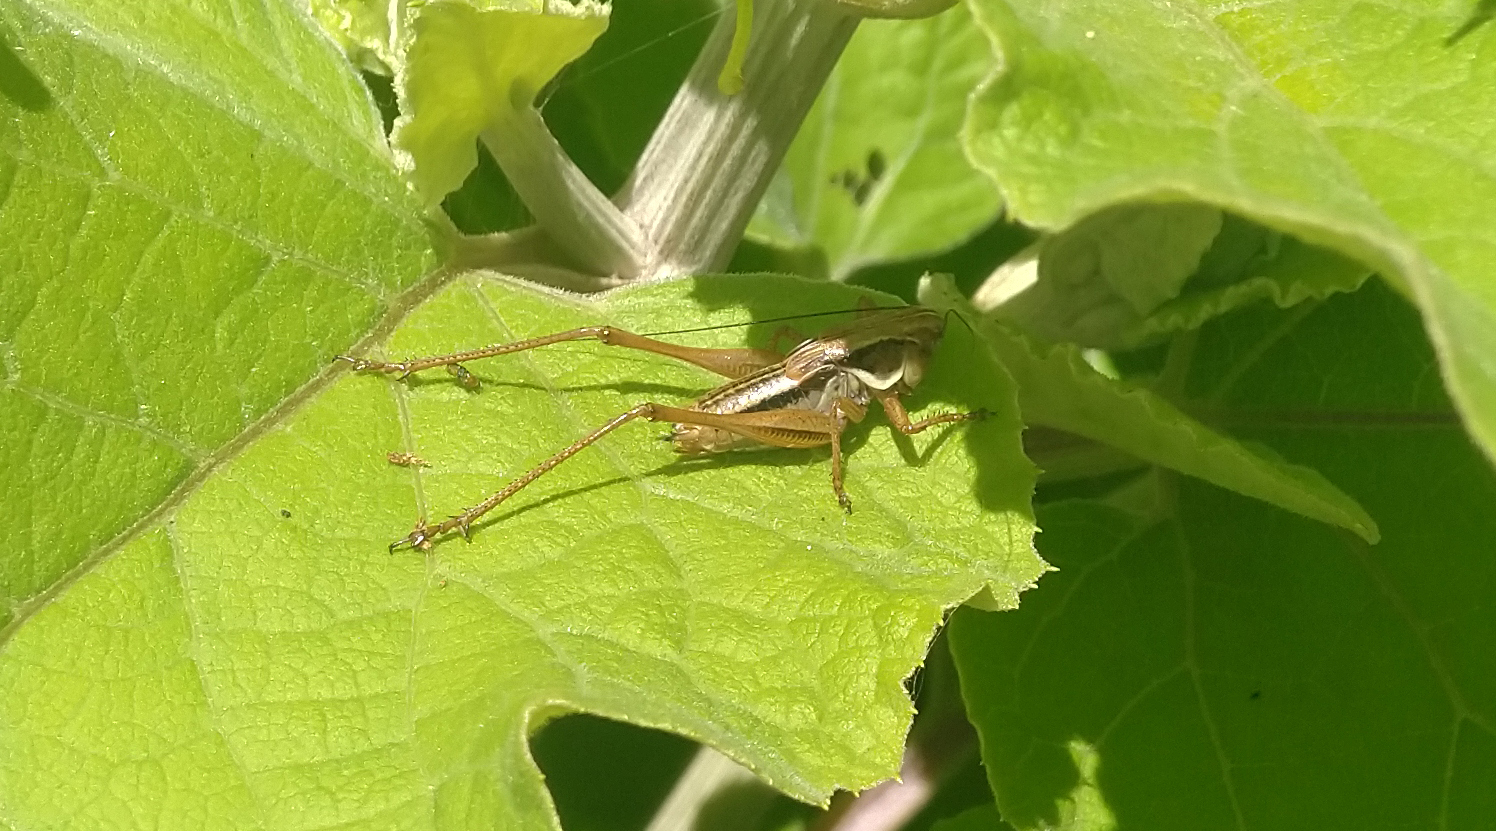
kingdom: Animalia
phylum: Arthropoda
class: Insecta
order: Orthoptera
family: Tettigoniidae
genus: Roeseliana
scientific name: Roeseliana roeselii
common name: Roesel's bush cricket
